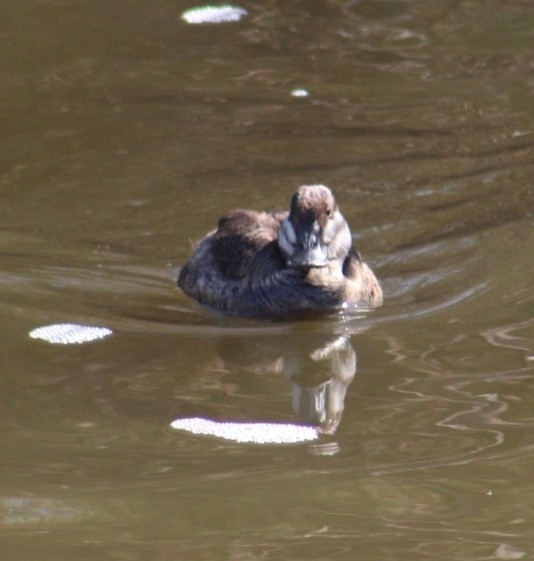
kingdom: Animalia
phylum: Chordata
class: Aves
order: Anseriformes
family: Anatidae
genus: Oxyura
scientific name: Oxyura jamaicensis
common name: Ruddy duck
